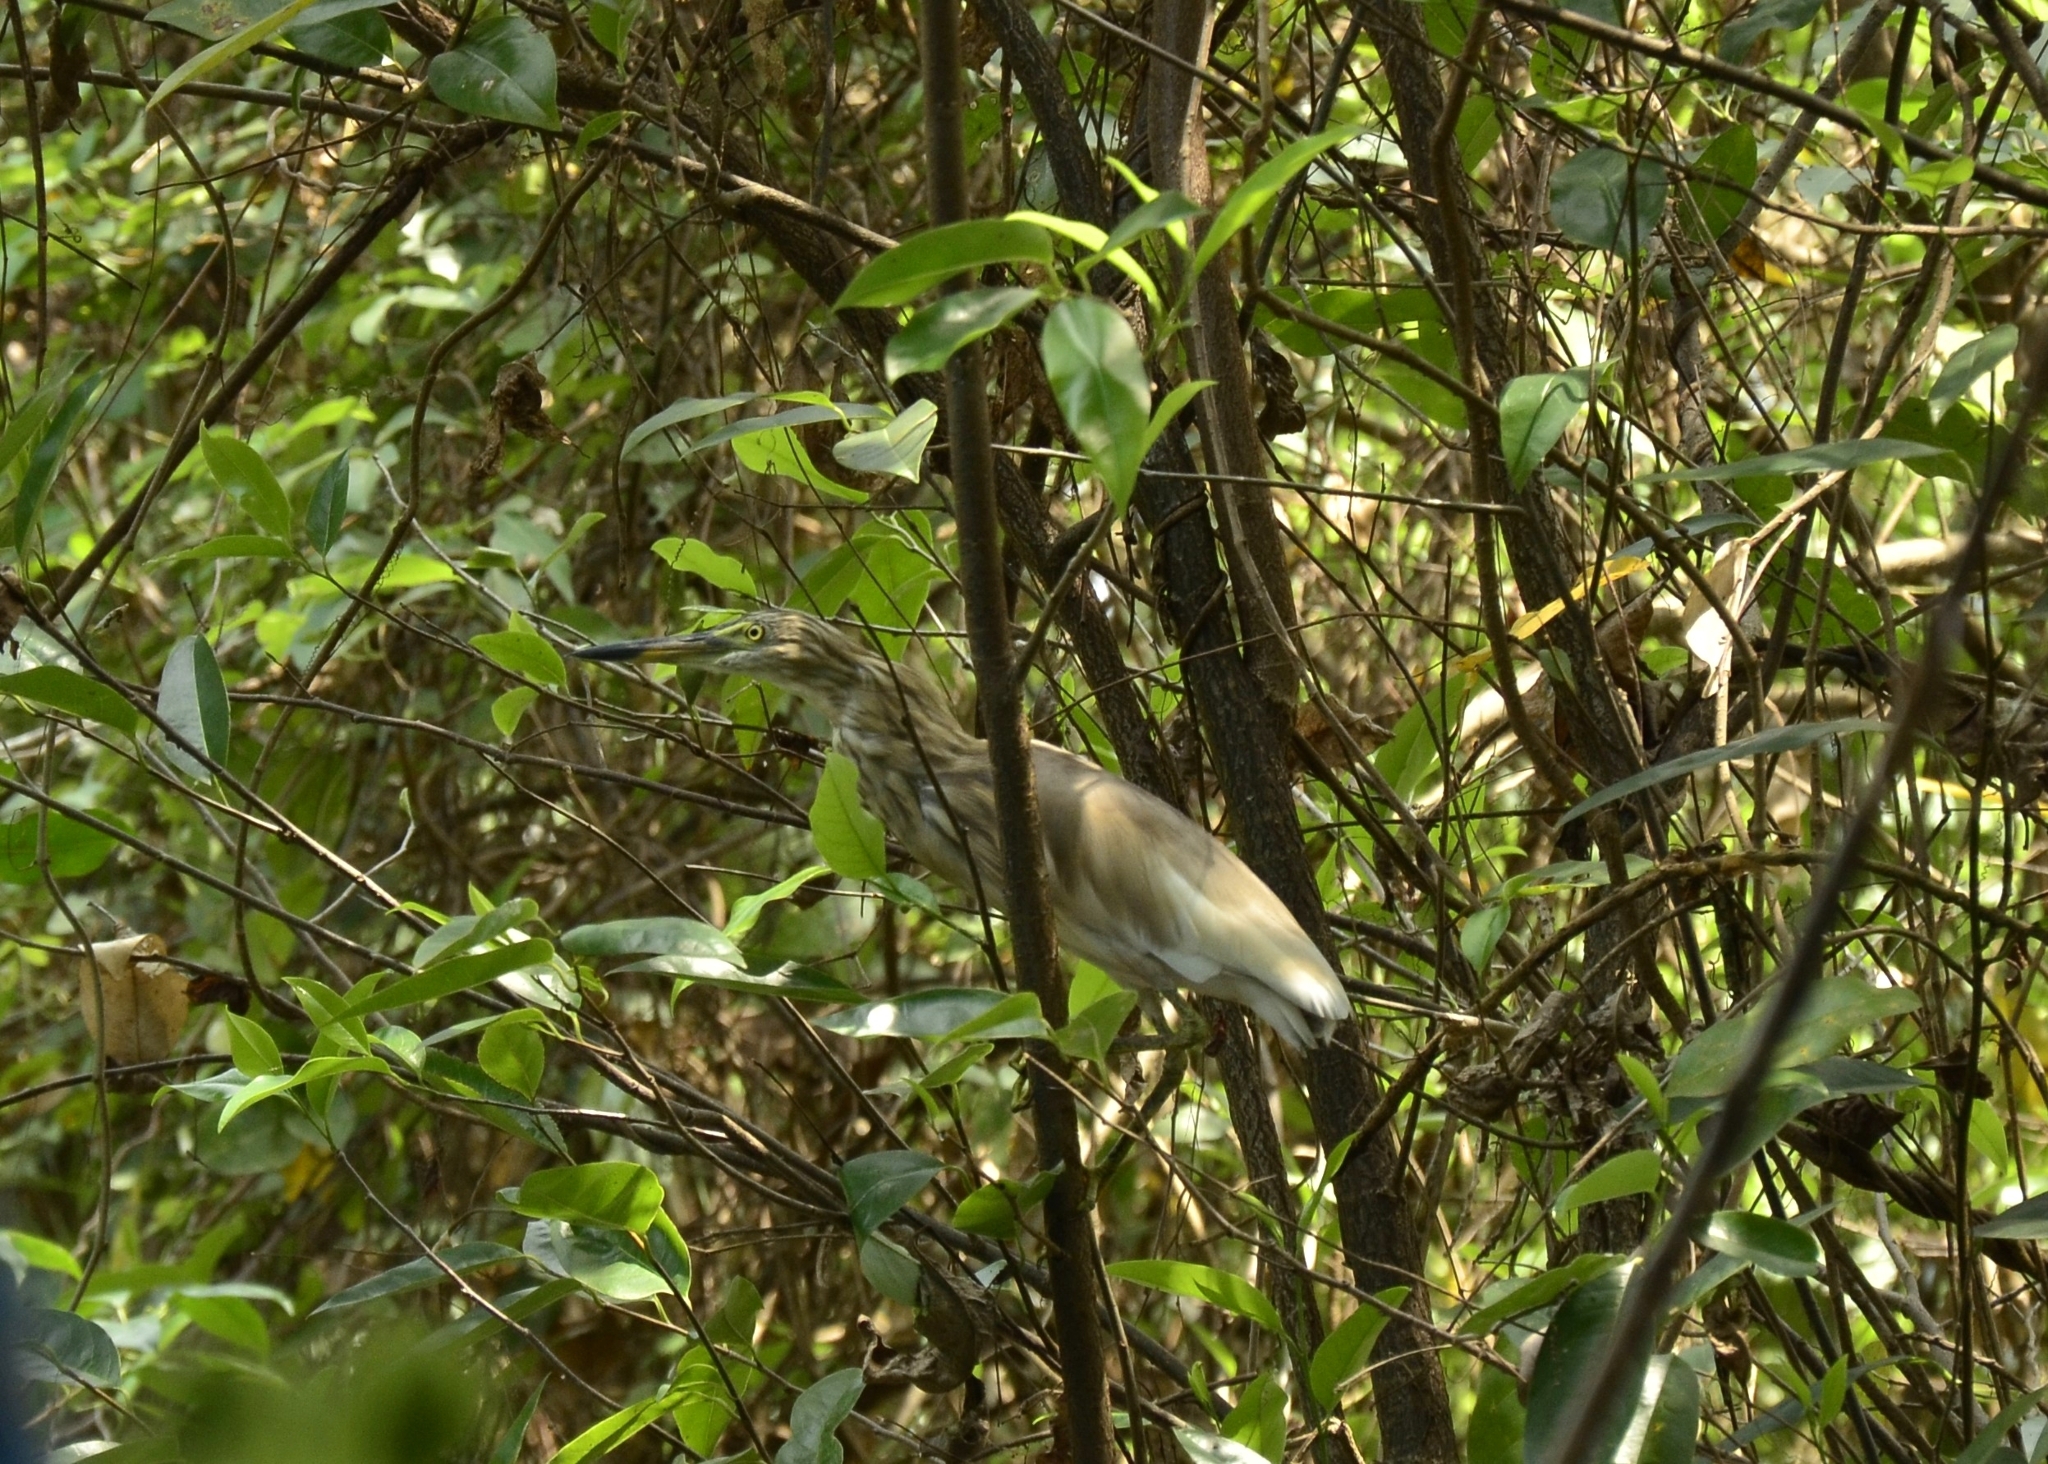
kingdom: Animalia
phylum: Chordata
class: Aves
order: Pelecaniformes
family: Ardeidae
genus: Ardeola
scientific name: Ardeola grayii
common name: Indian pond heron
